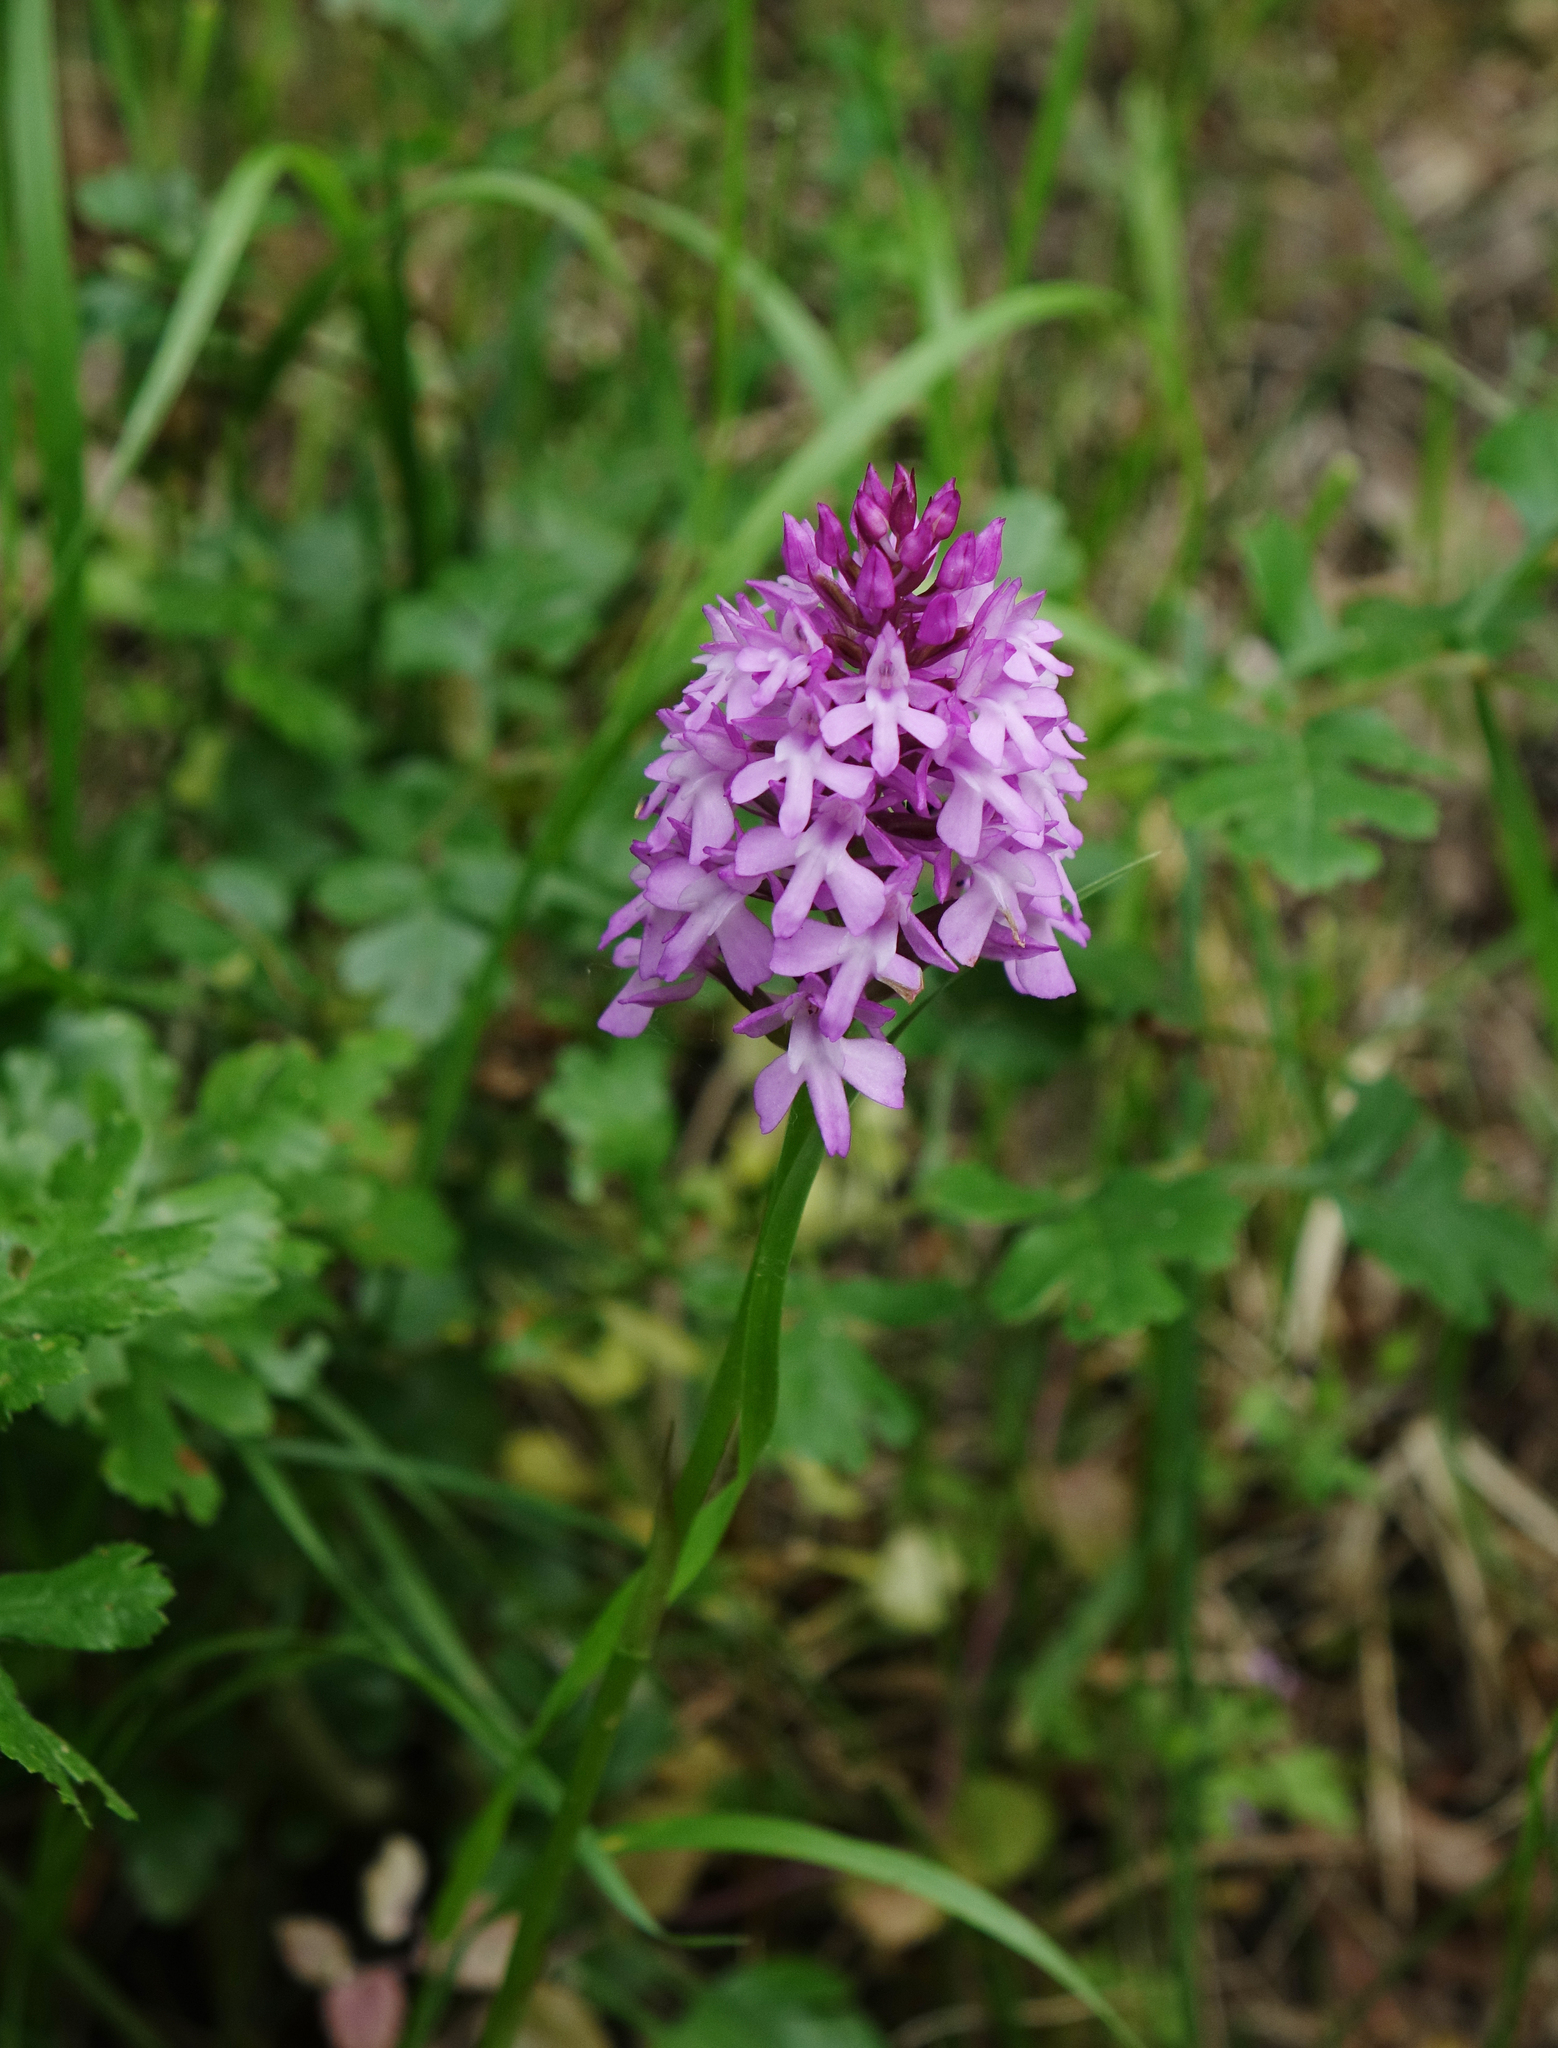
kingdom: Plantae
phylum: Tracheophyta
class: Liliopsida
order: Asparagales
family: Orchidaceae
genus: Anacamptis
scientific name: Anacamptis pyramidalis
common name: Pyramidal orchid
